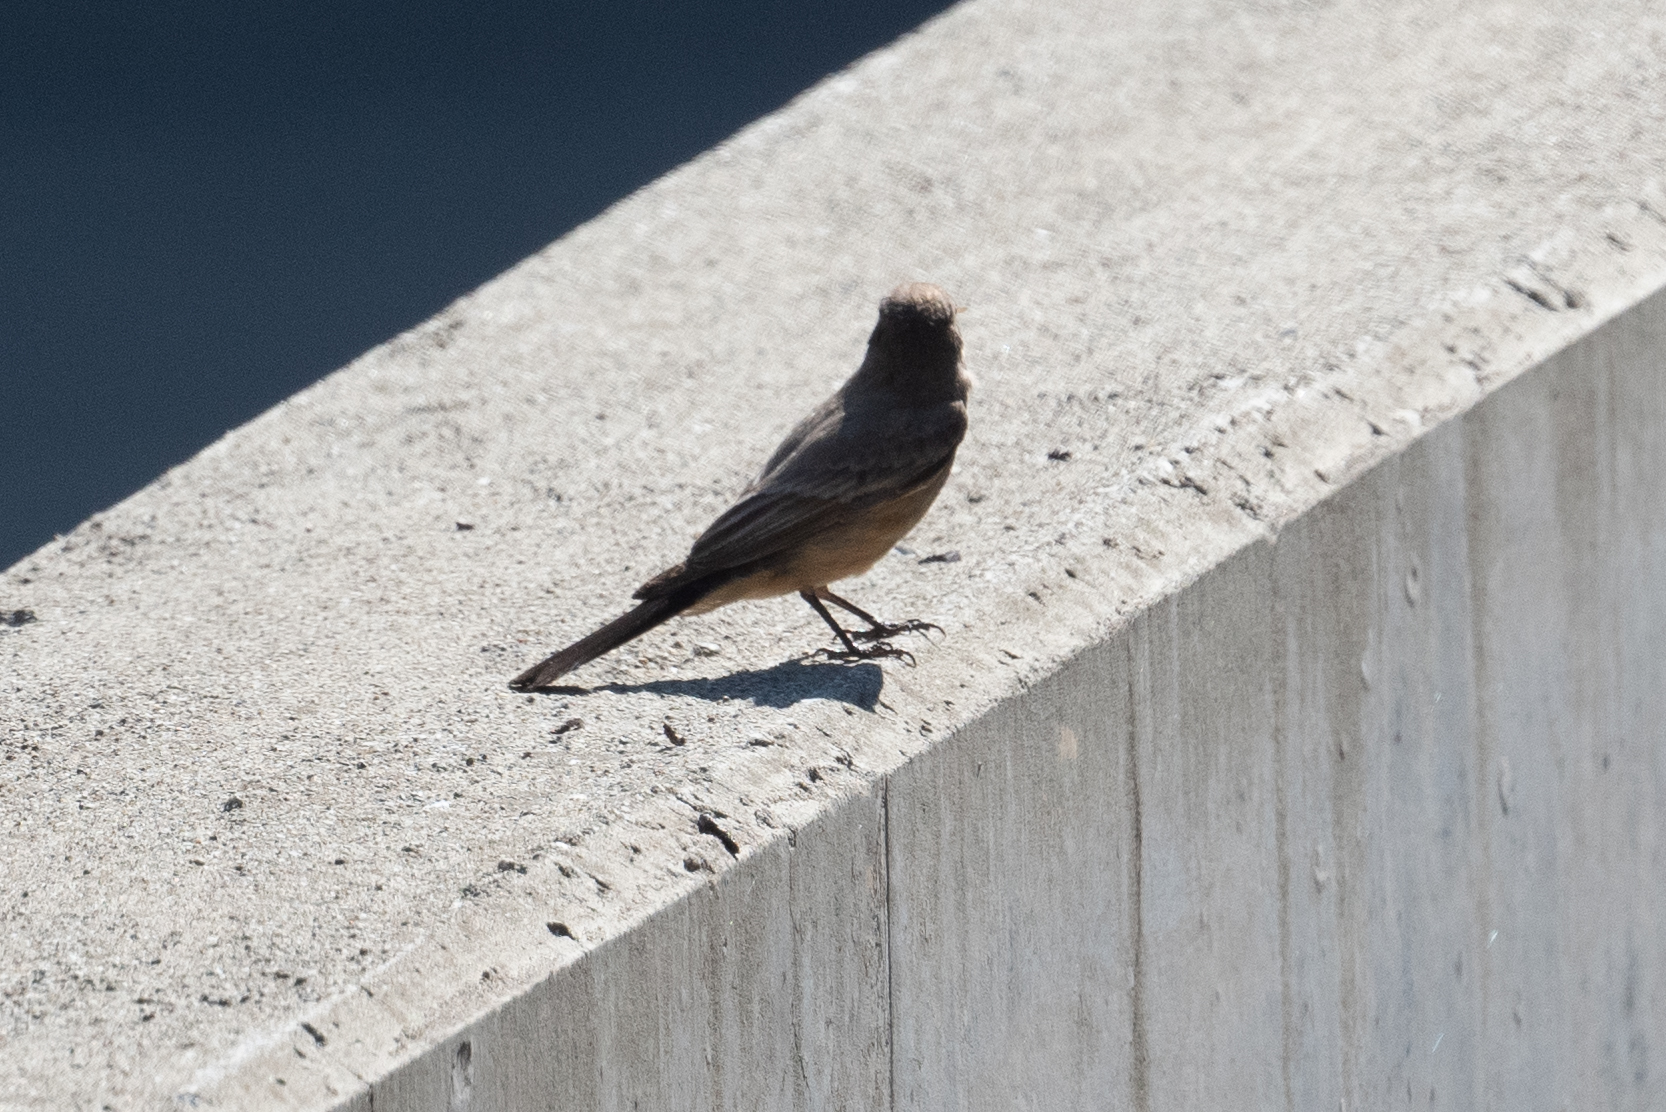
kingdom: Animalia
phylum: Chordata
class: Aves
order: Passeriformes
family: Tyrannidae
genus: Sayornis
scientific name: Sayornis saya
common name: Say's phoebe
